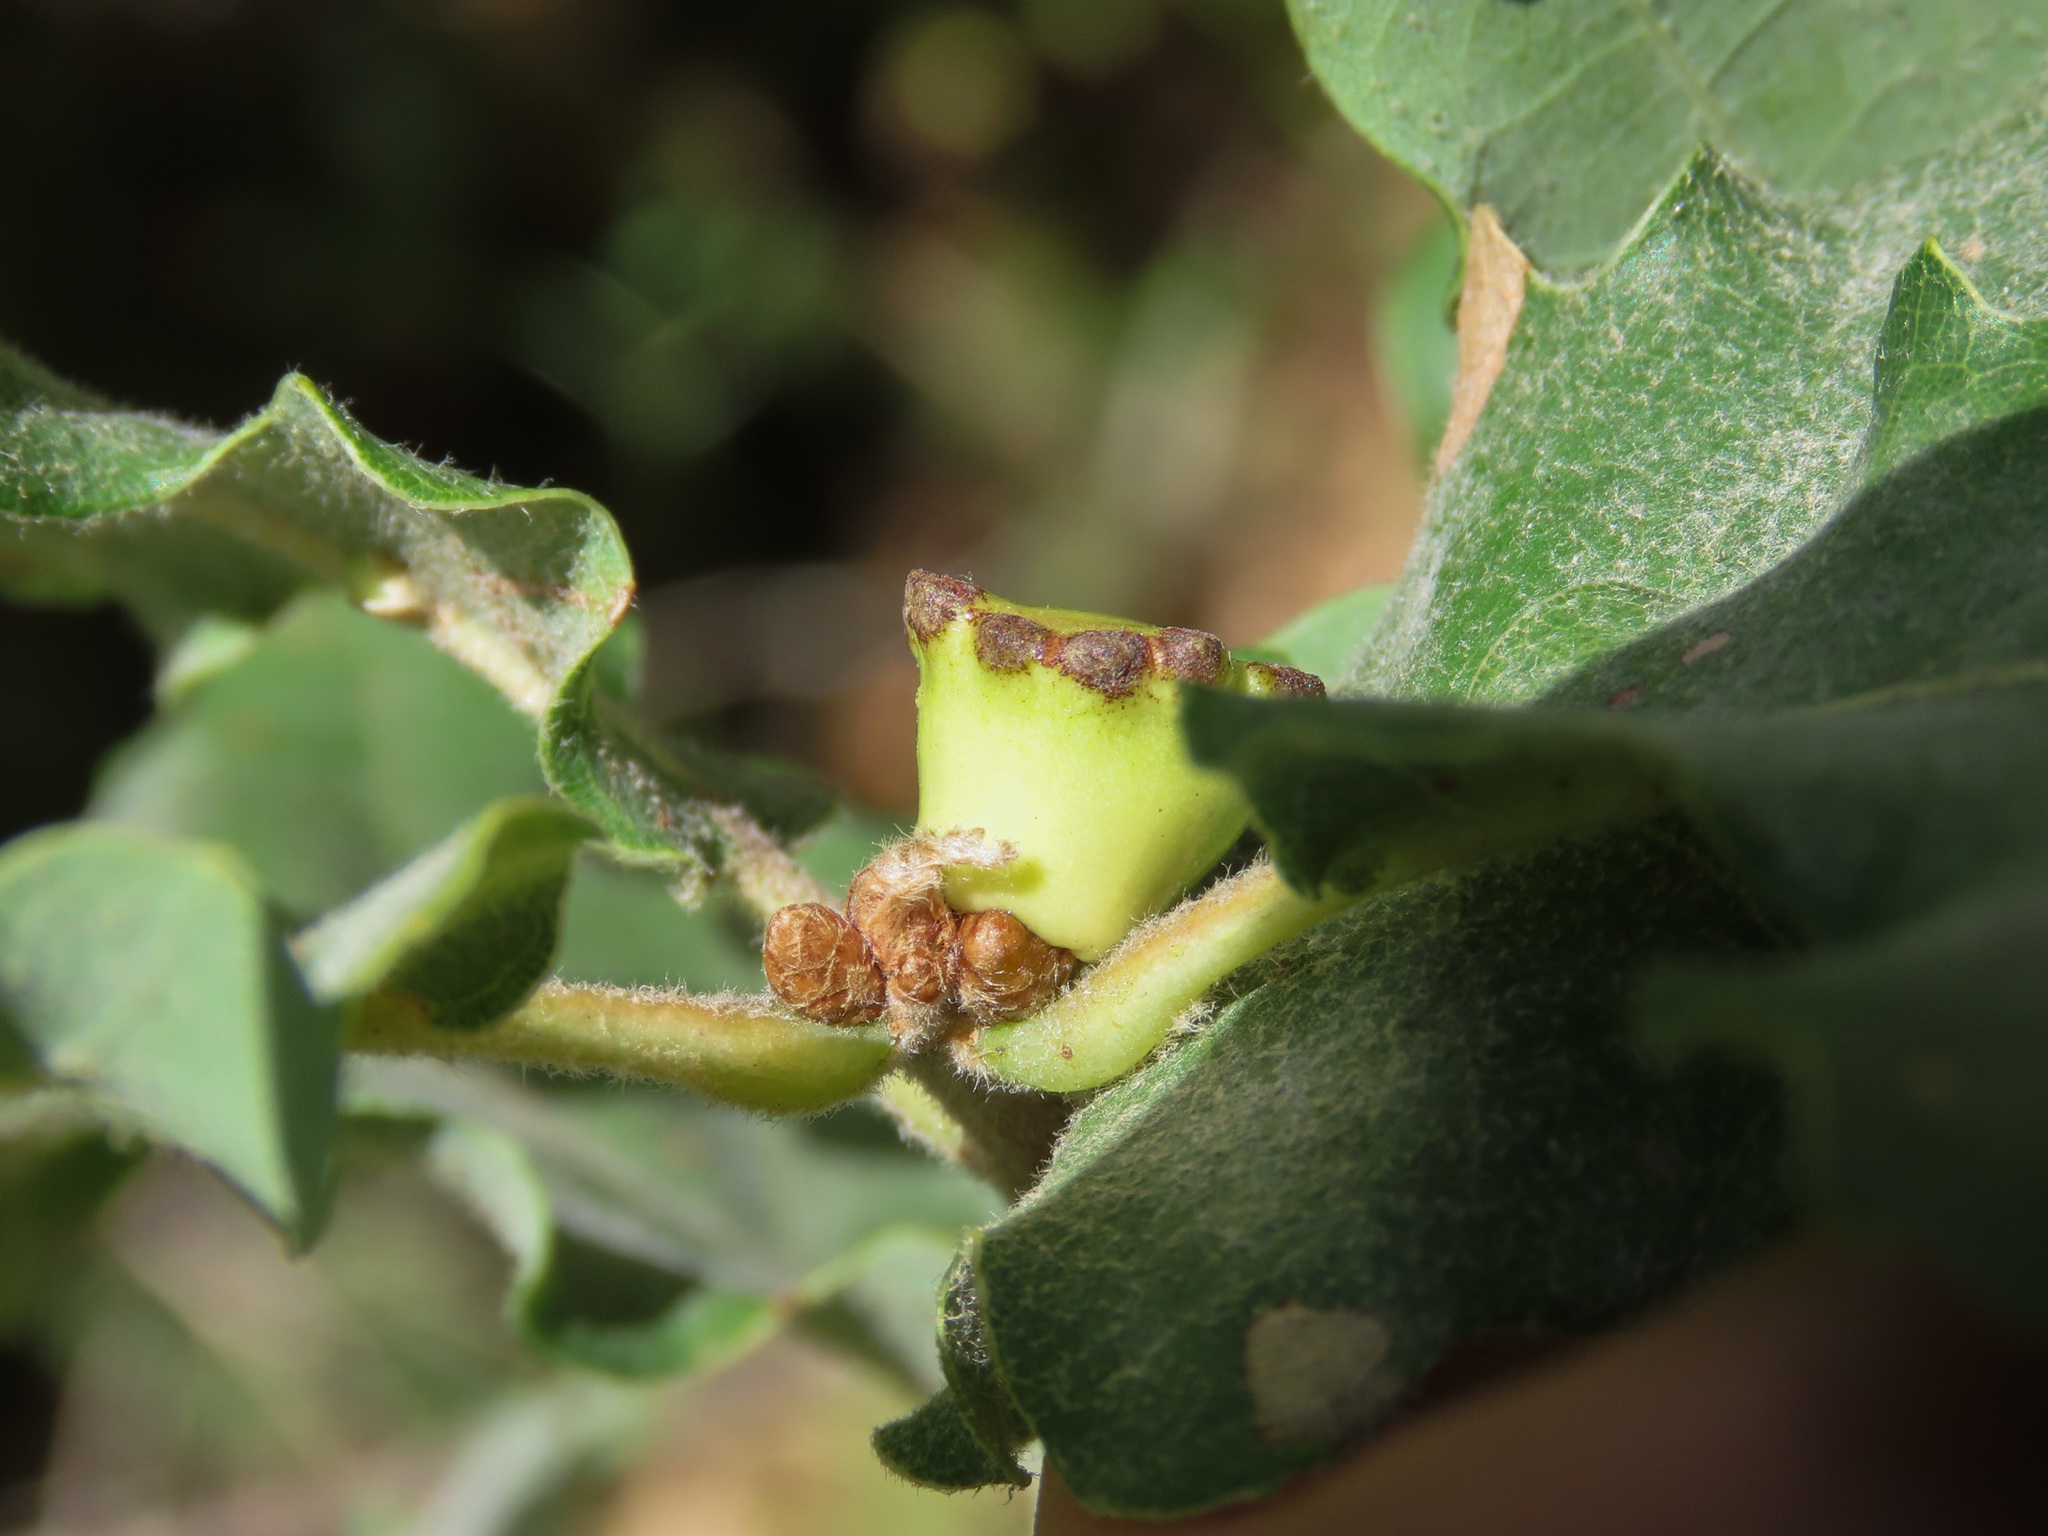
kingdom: Animalia
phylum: Arthropoda
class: Insecta
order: Hymenoptera
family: Cynipidae
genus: Andricus
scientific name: Andricus quercustozae
